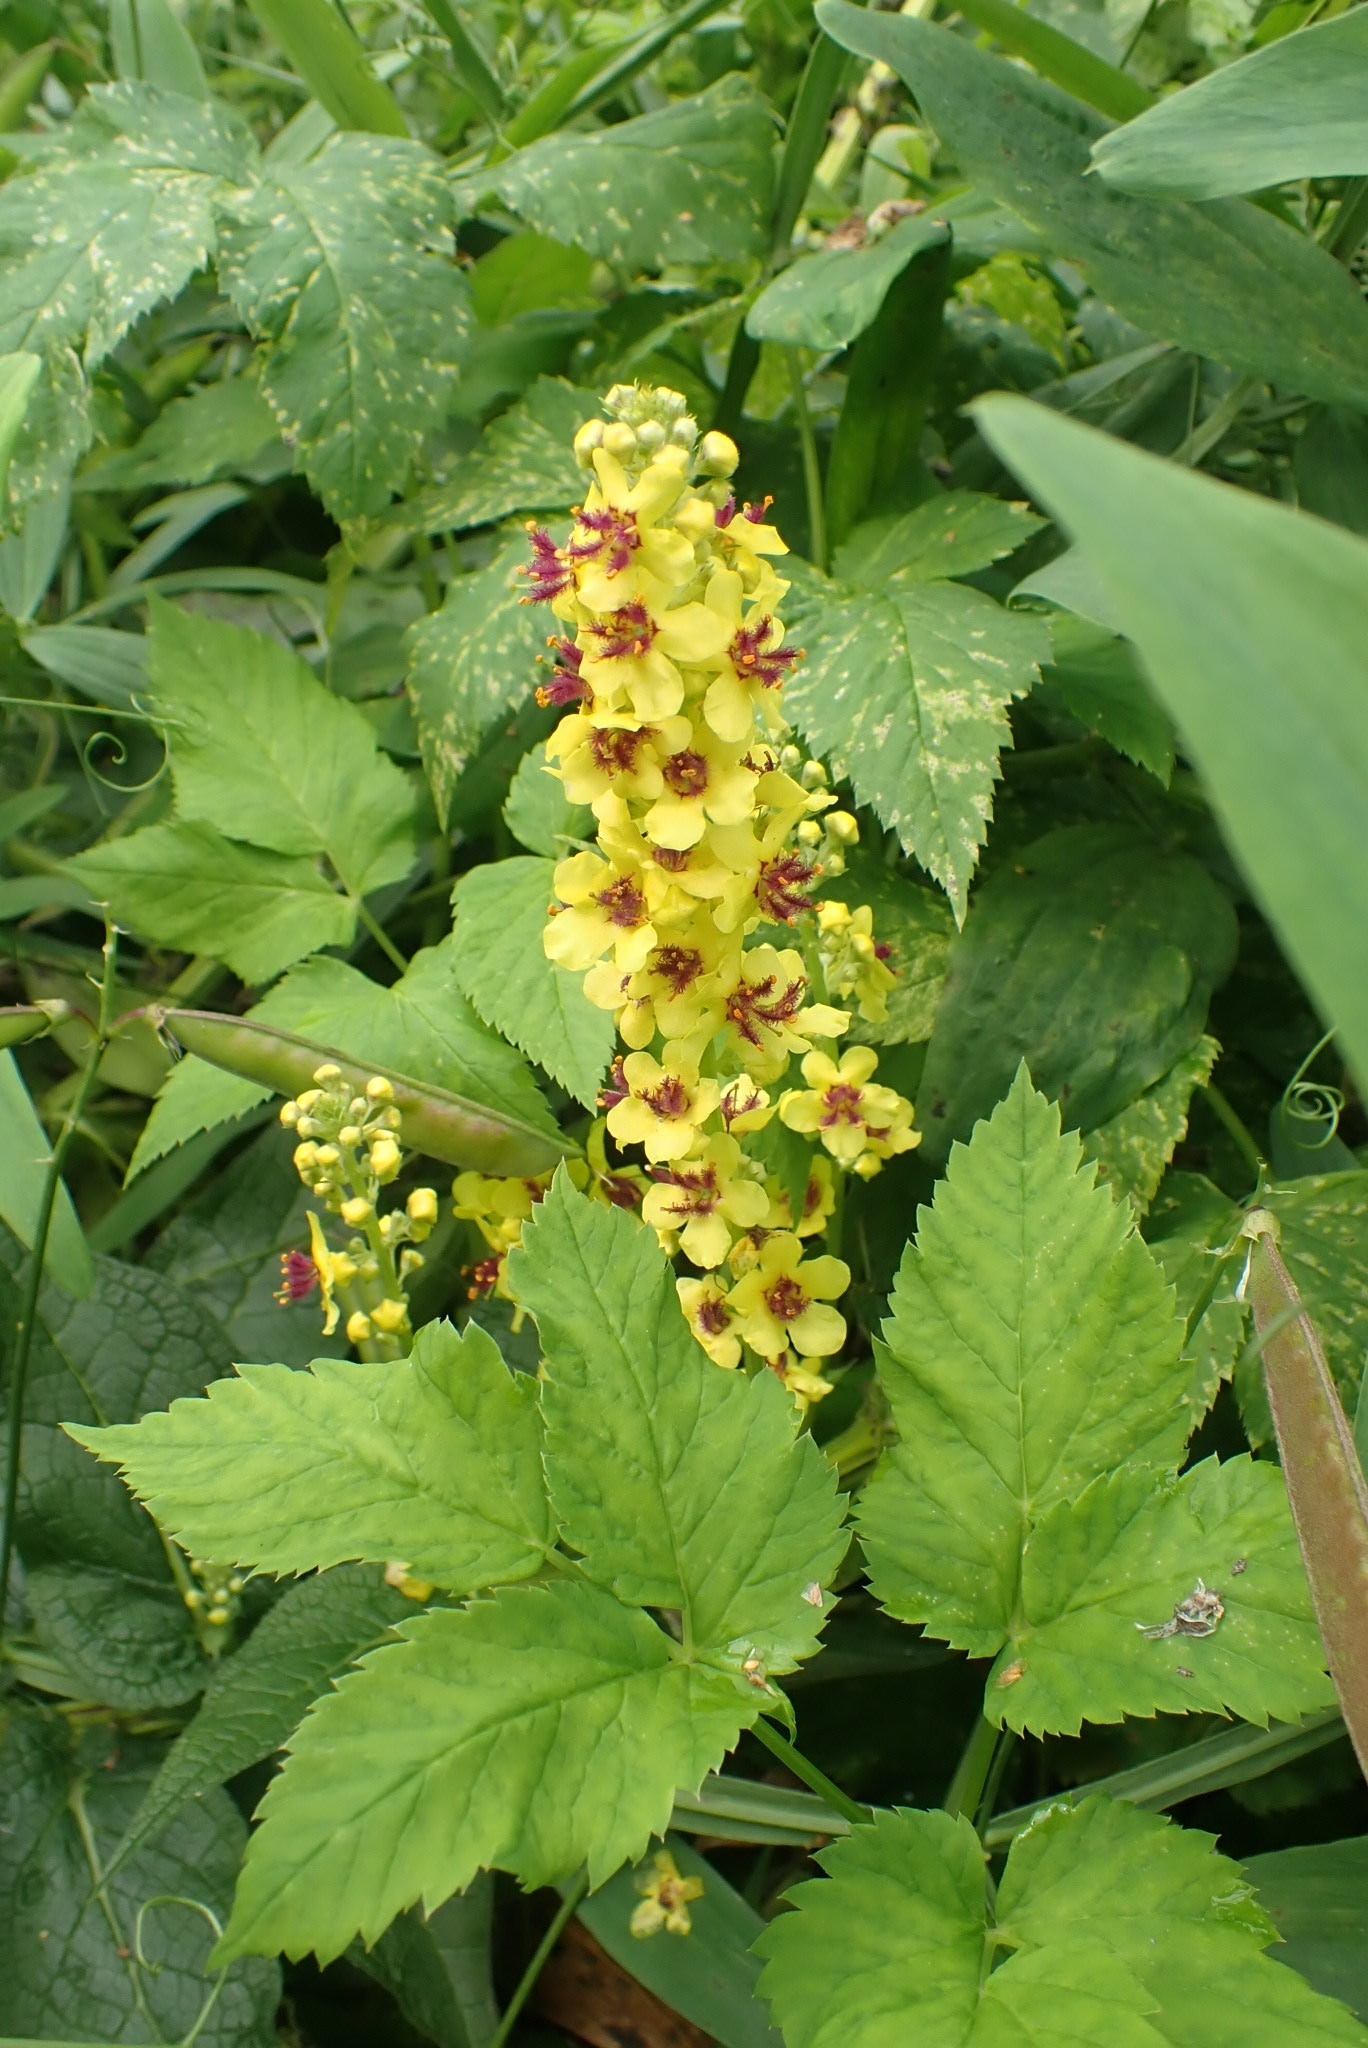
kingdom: Plantae
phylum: Tracheophyta
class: Magnoliopsida
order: Lamiales
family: Scrophulariaceae
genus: Verbascum
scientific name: Verbascum nigrum
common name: Dark mullein
